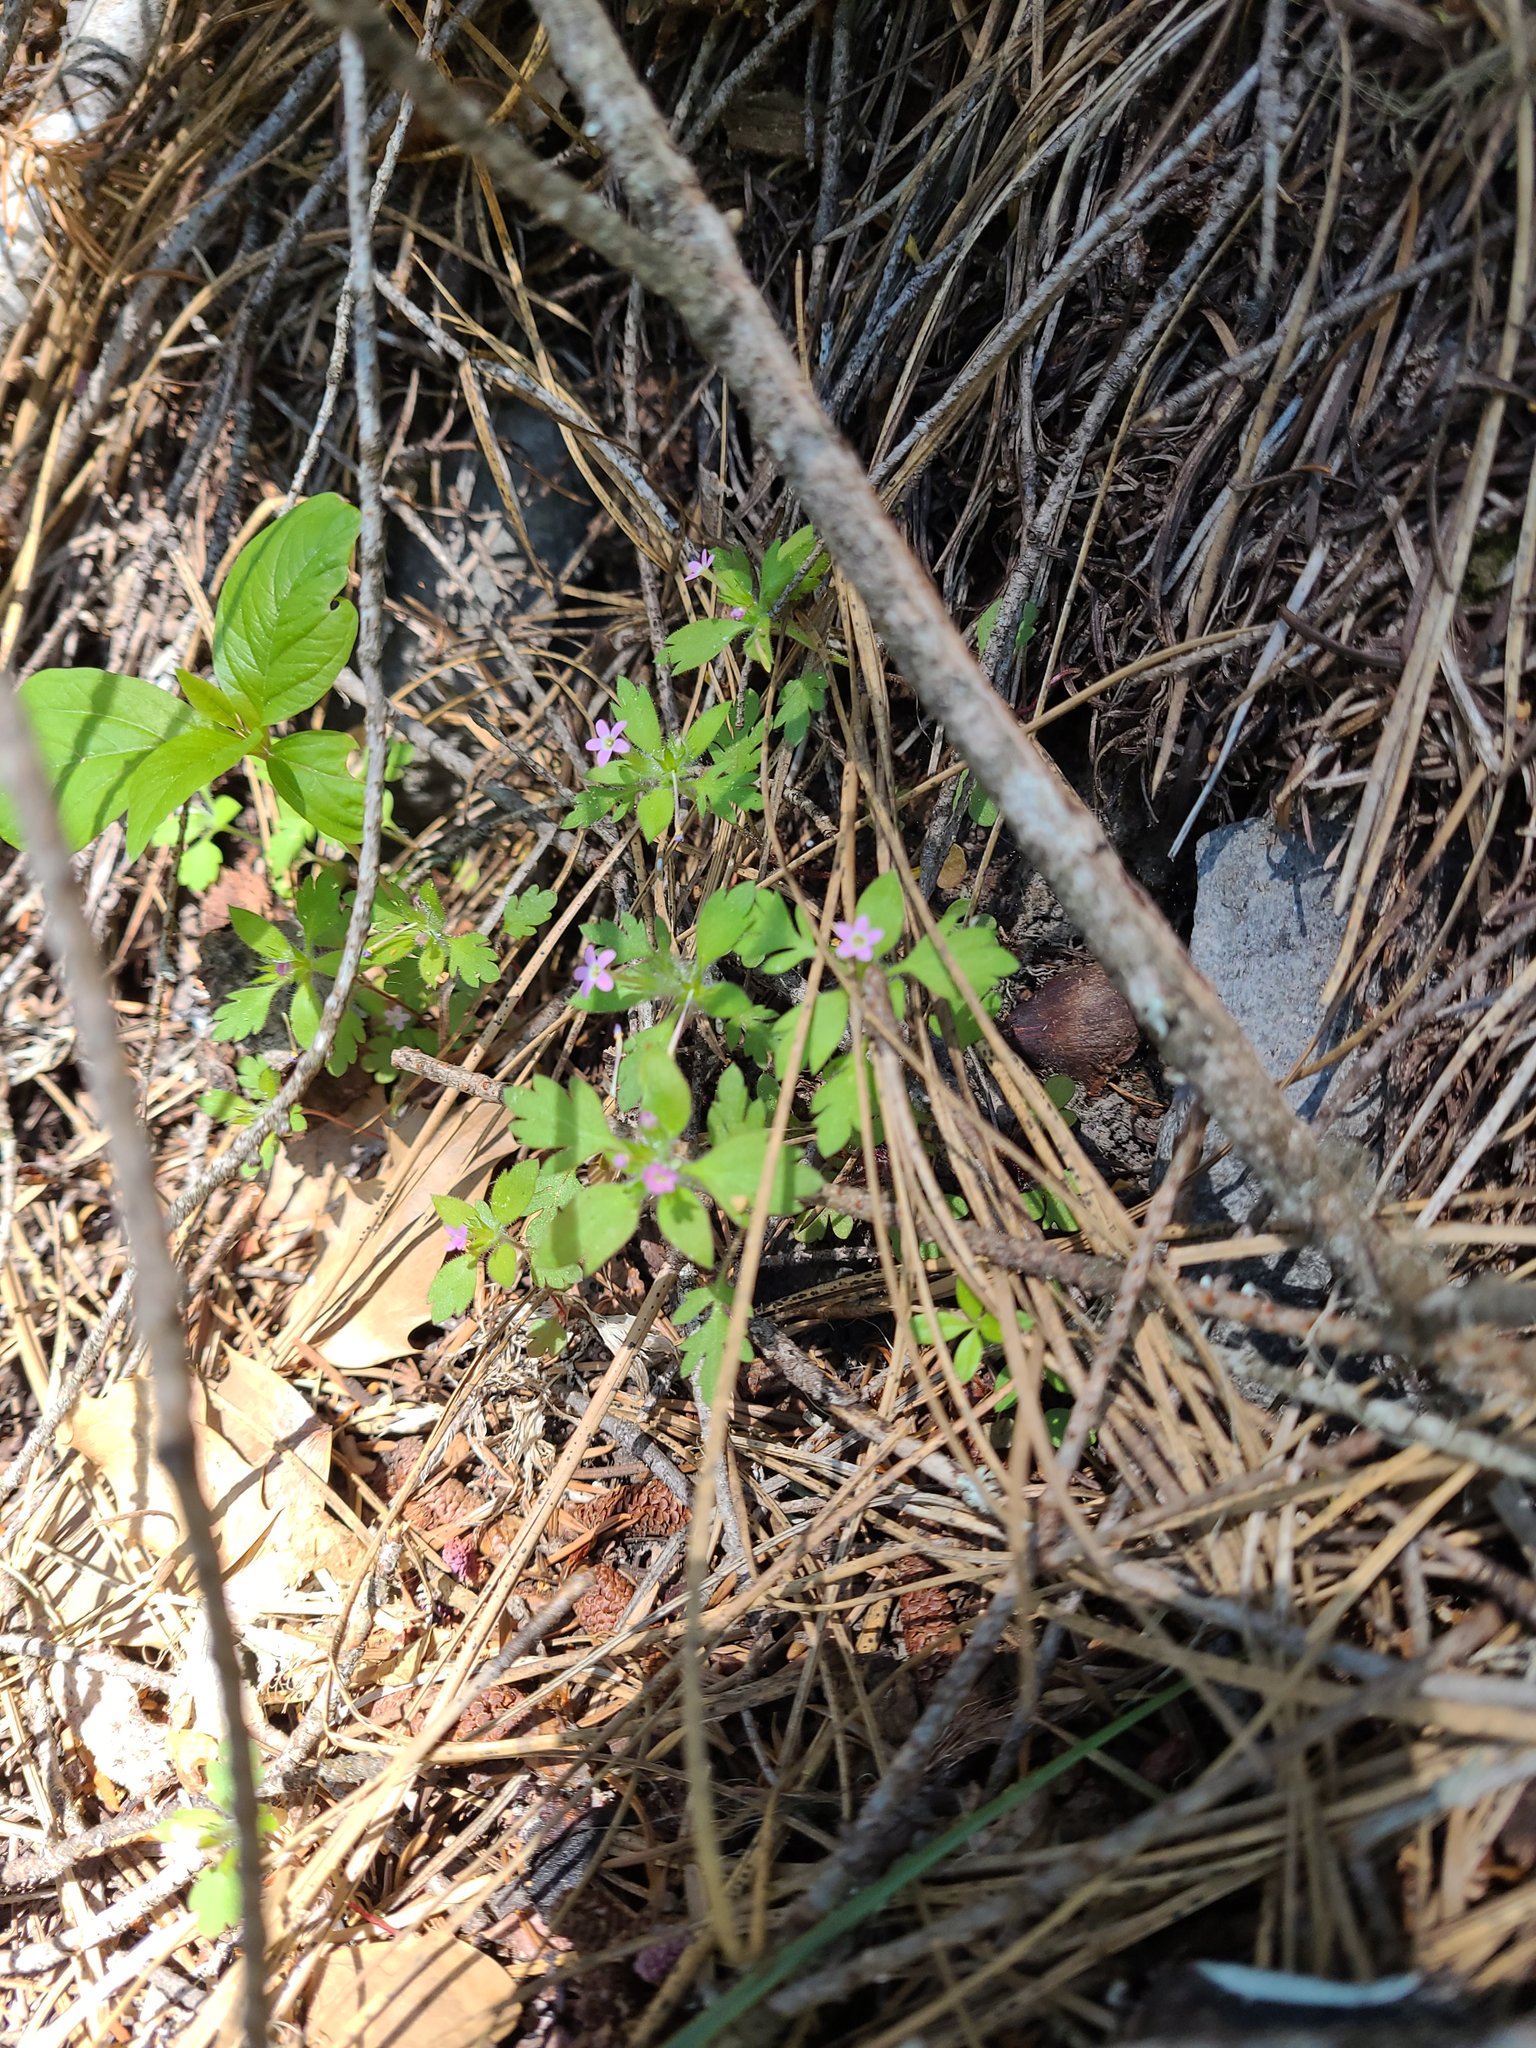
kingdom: Plantae
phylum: Tracheophyta
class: Magnoliopsida
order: Ericales
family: Polemoniaceae
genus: Collomia
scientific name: Collomia heterophylla
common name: Variable-leaved collomia
